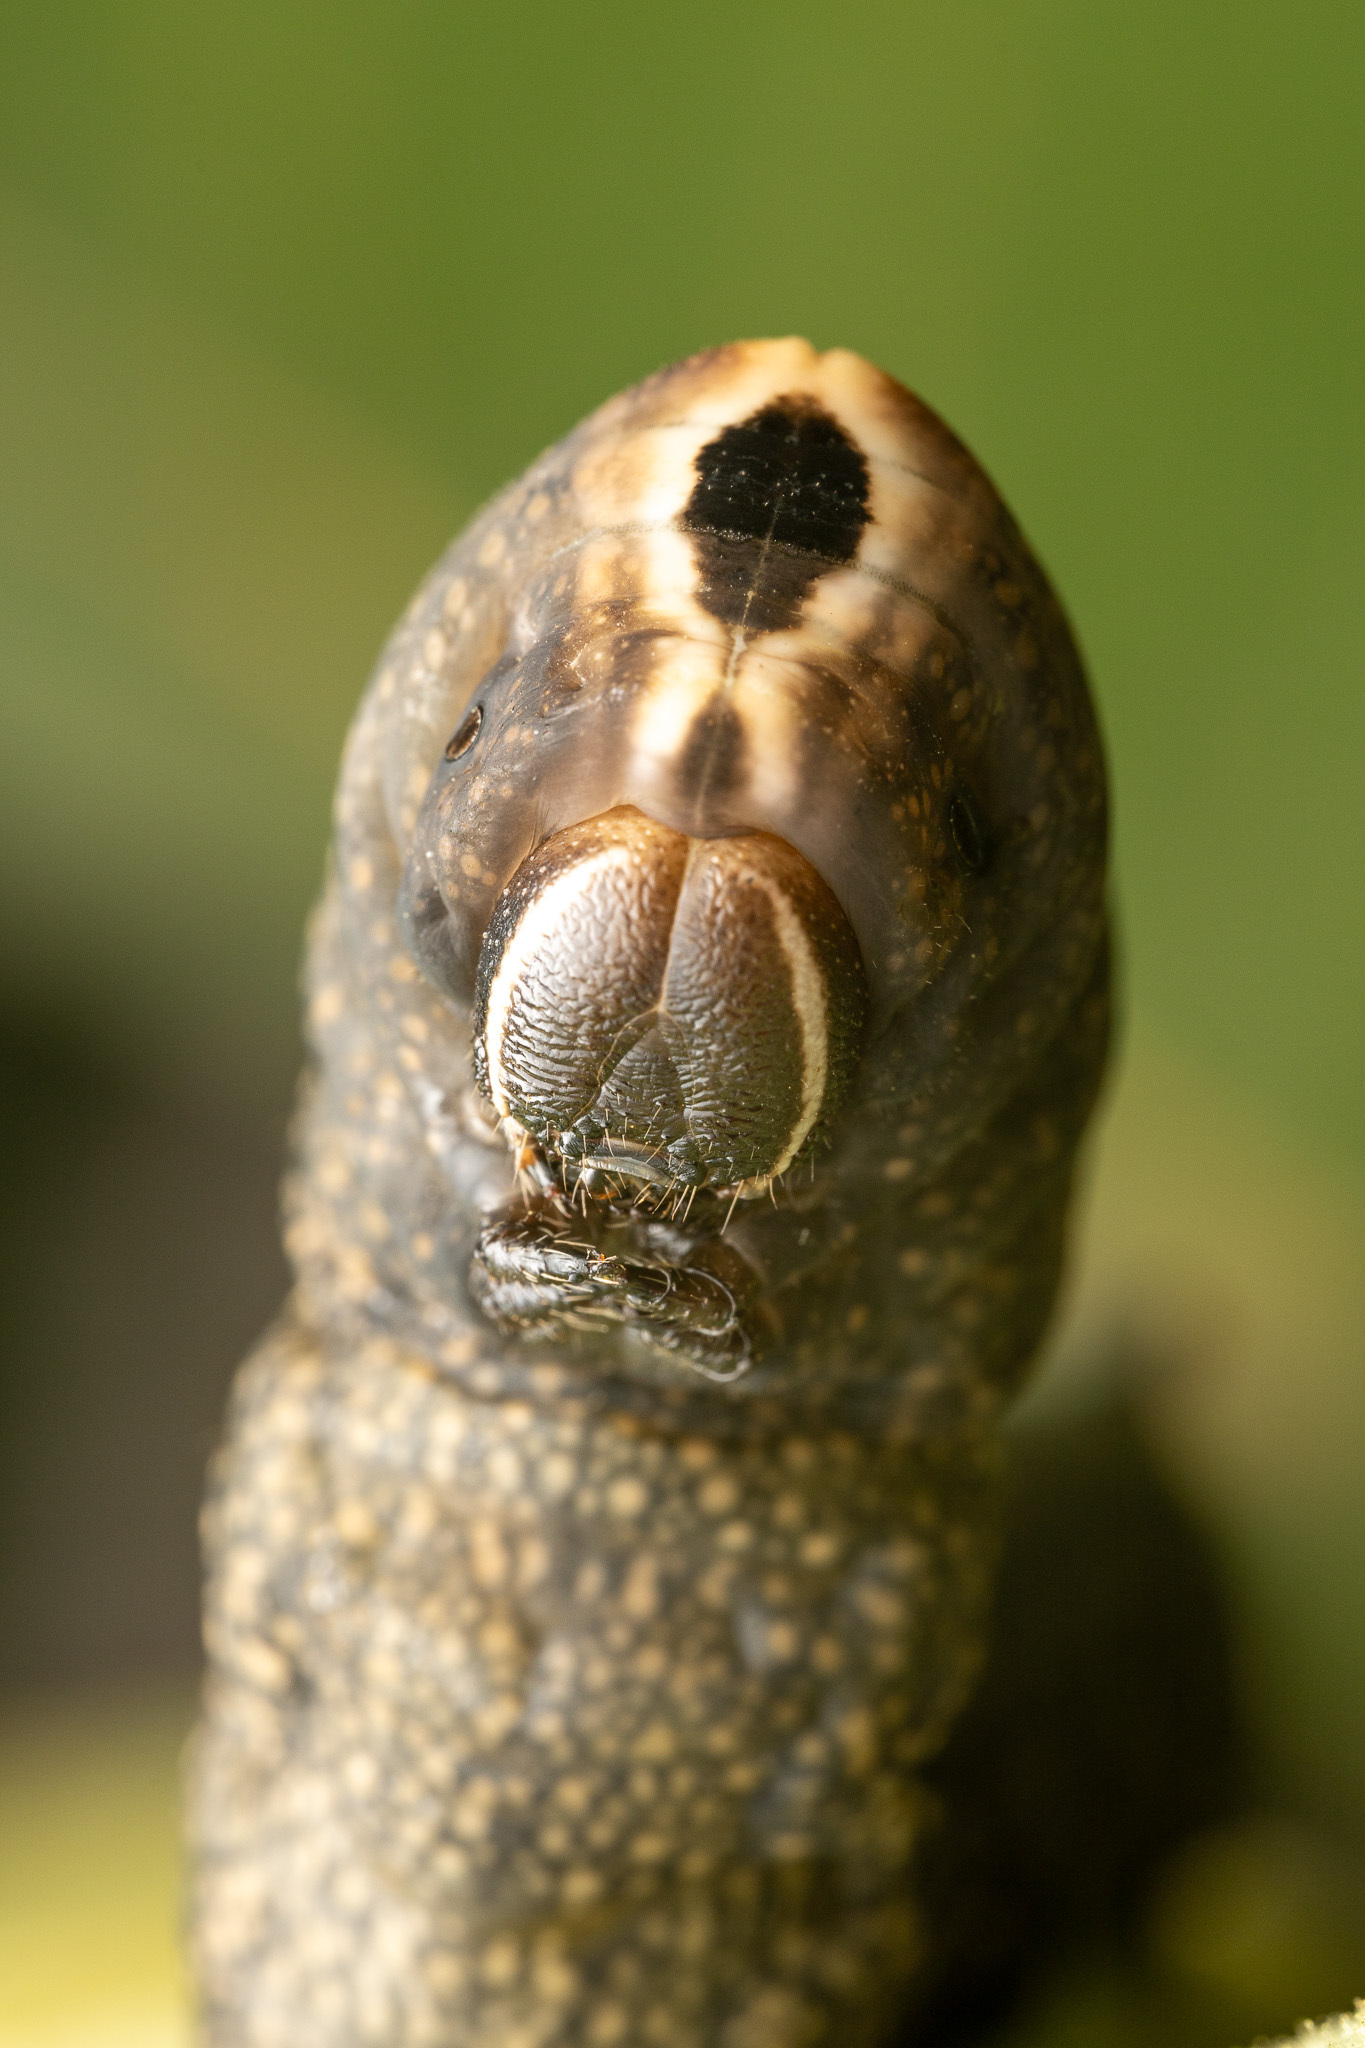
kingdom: Animalia
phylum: Arthropoda
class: Insecta
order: Lepidoptera
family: Sphingidae
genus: Lintneria
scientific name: Lintneria lugens
